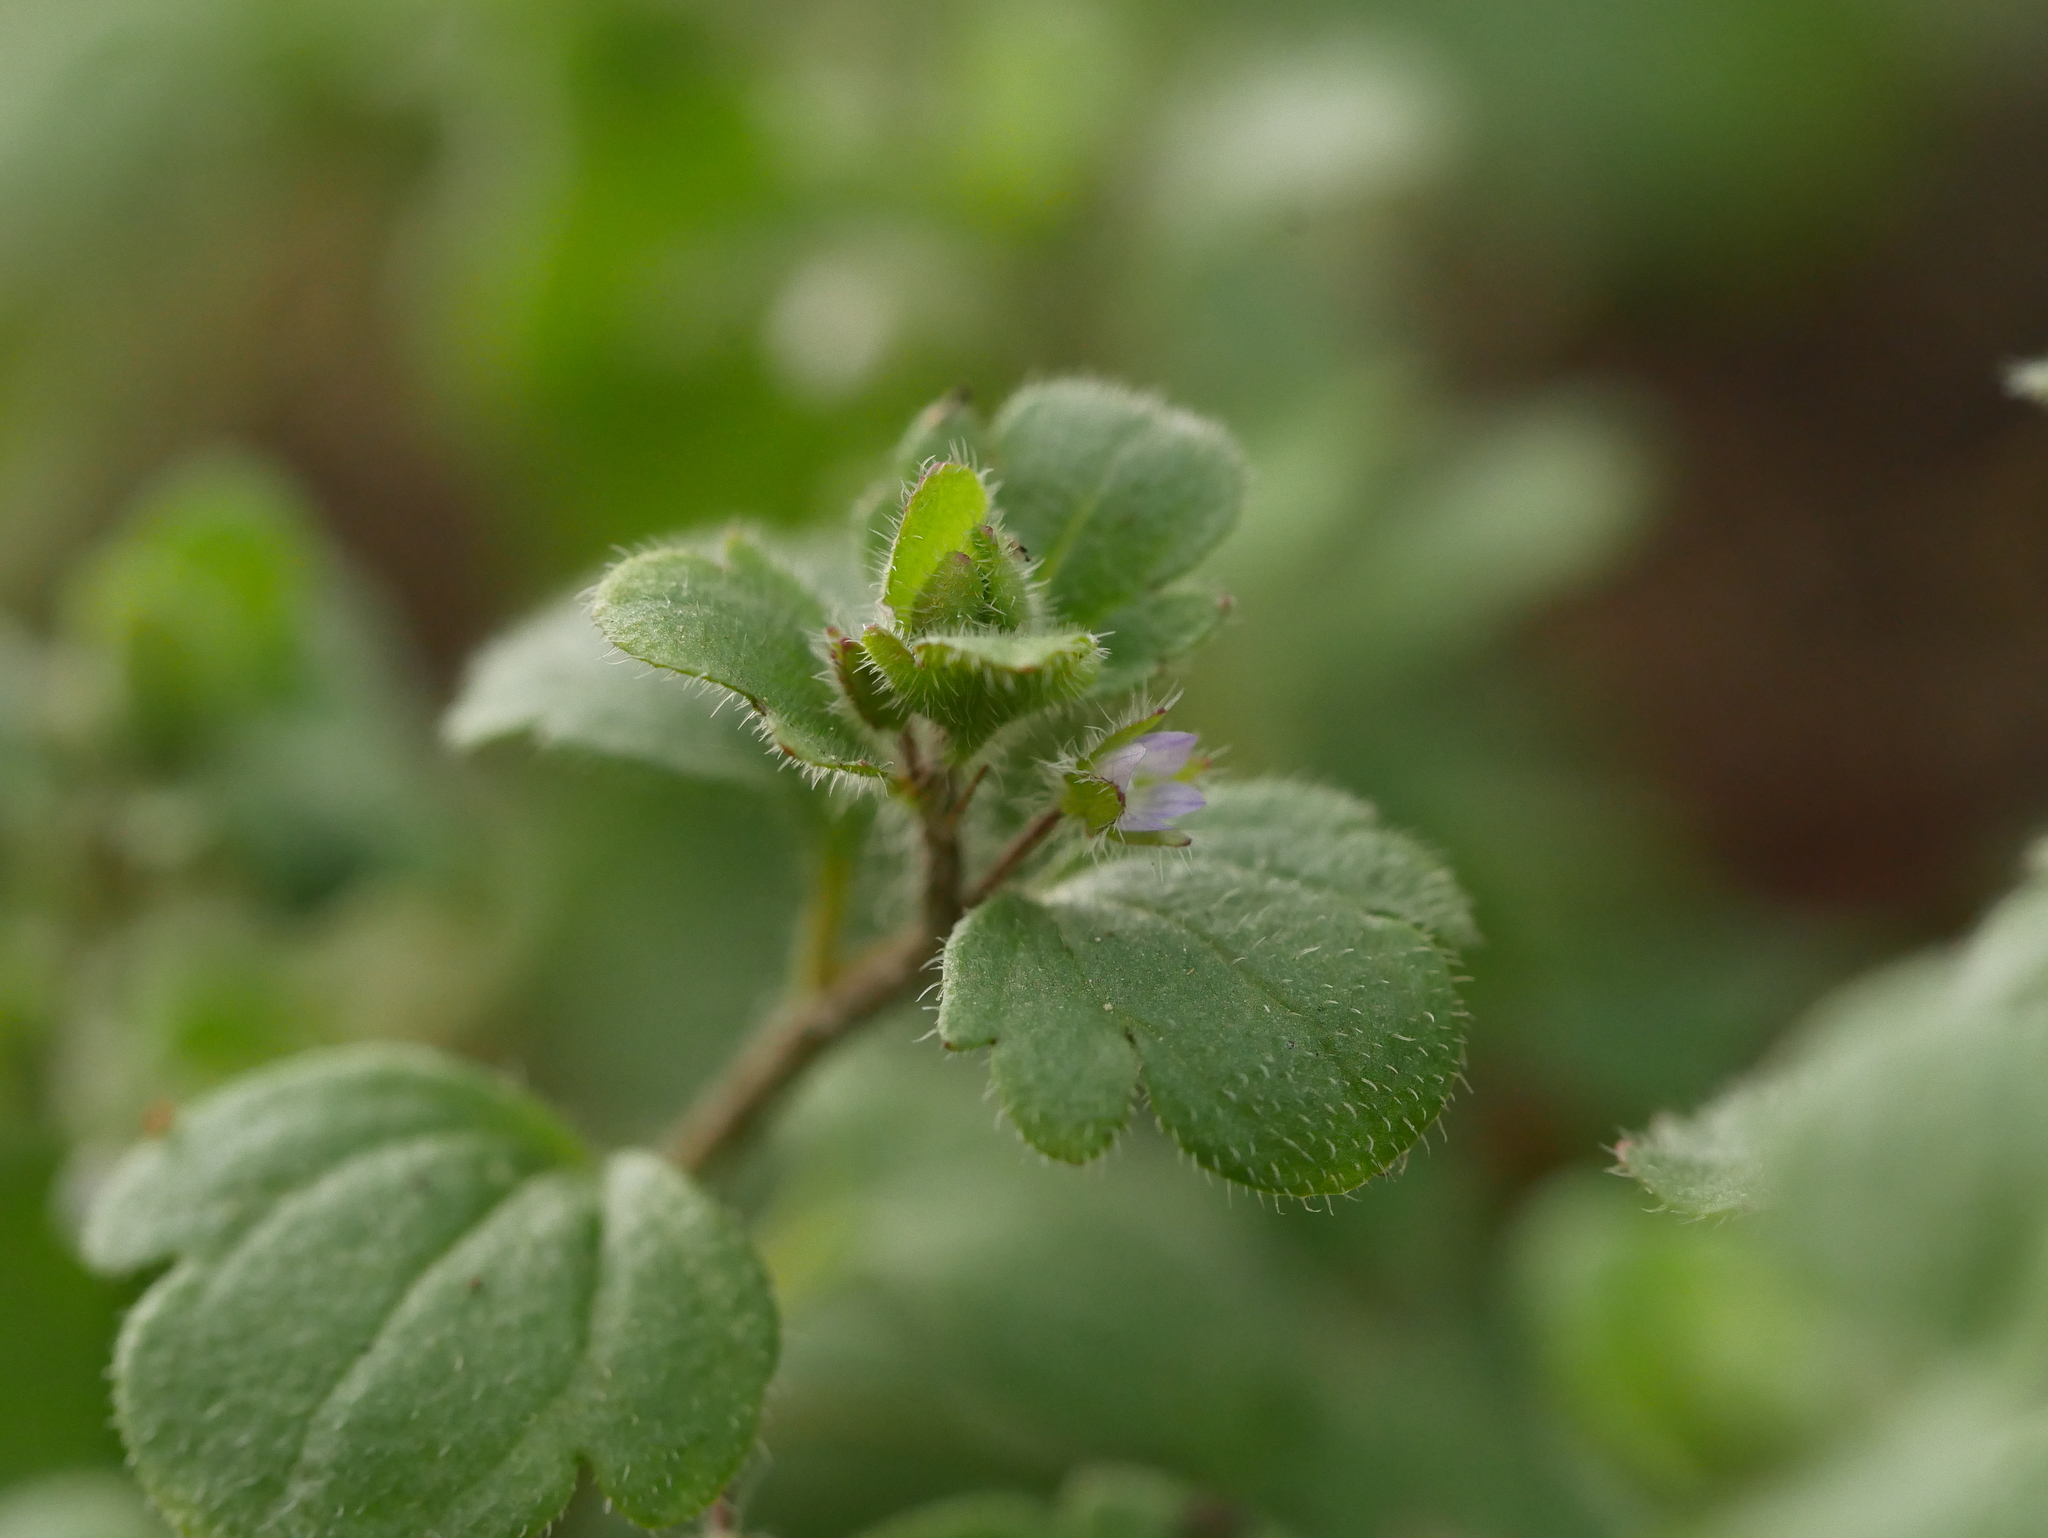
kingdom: Plantae
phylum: Tracheophyta
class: Magnoliopsida
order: Lamiales
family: Plantaginaceae
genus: Veronica
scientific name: Veronica sublobata
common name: False ivy-leaved speedwell
